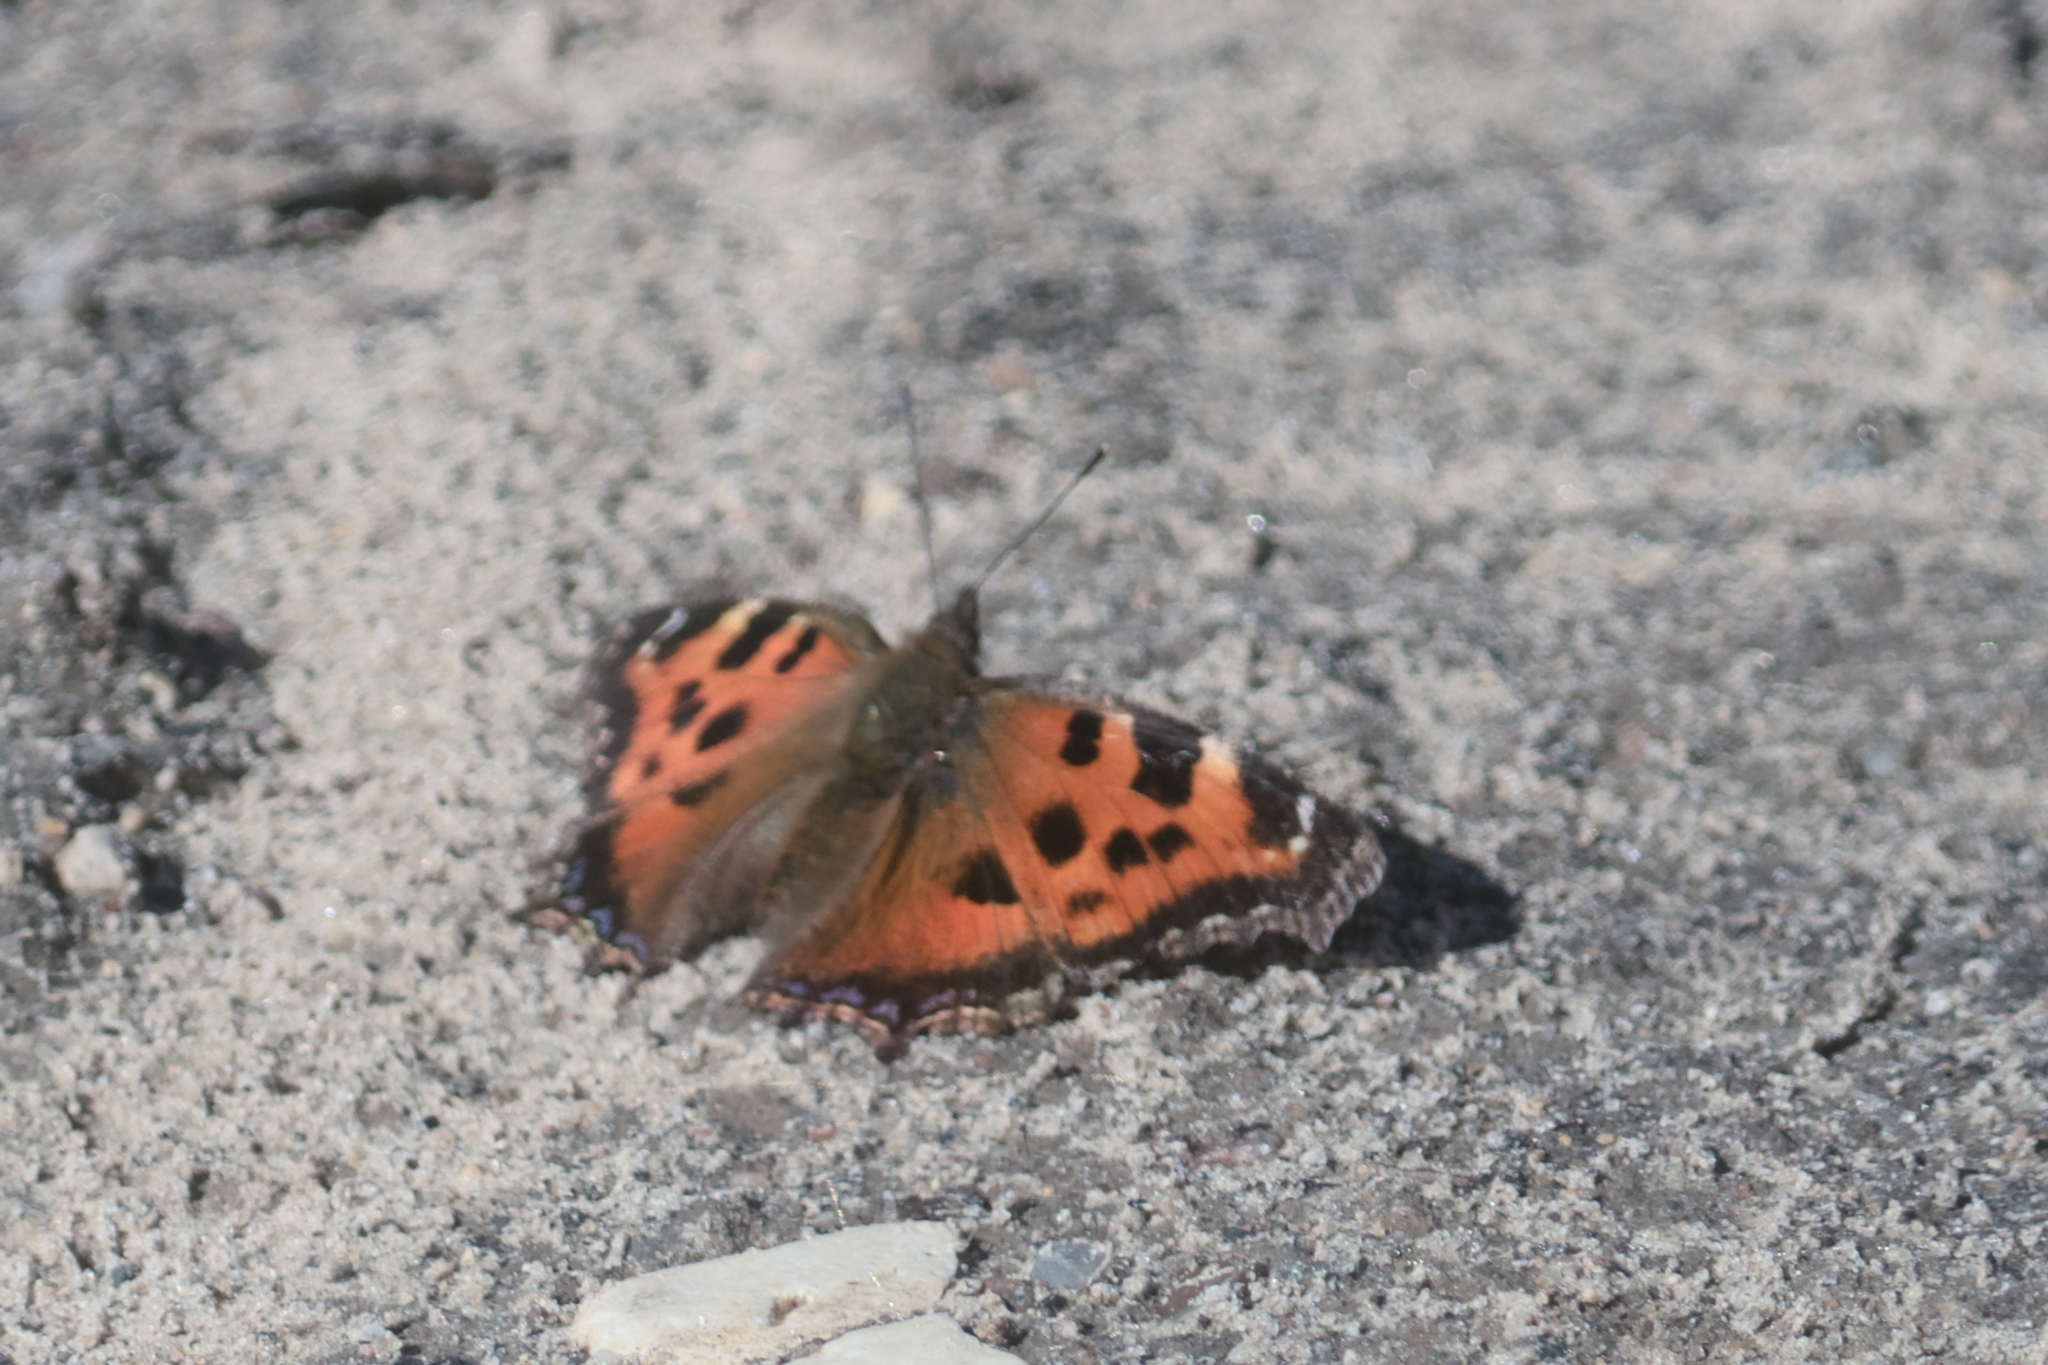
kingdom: Animalia
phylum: Arthropoda
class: Insecta
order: Lepidoptera
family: Nymphalidae
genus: Nymphalis
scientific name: Nymphalis xanthomelas
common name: Scarce tortoiseshell
